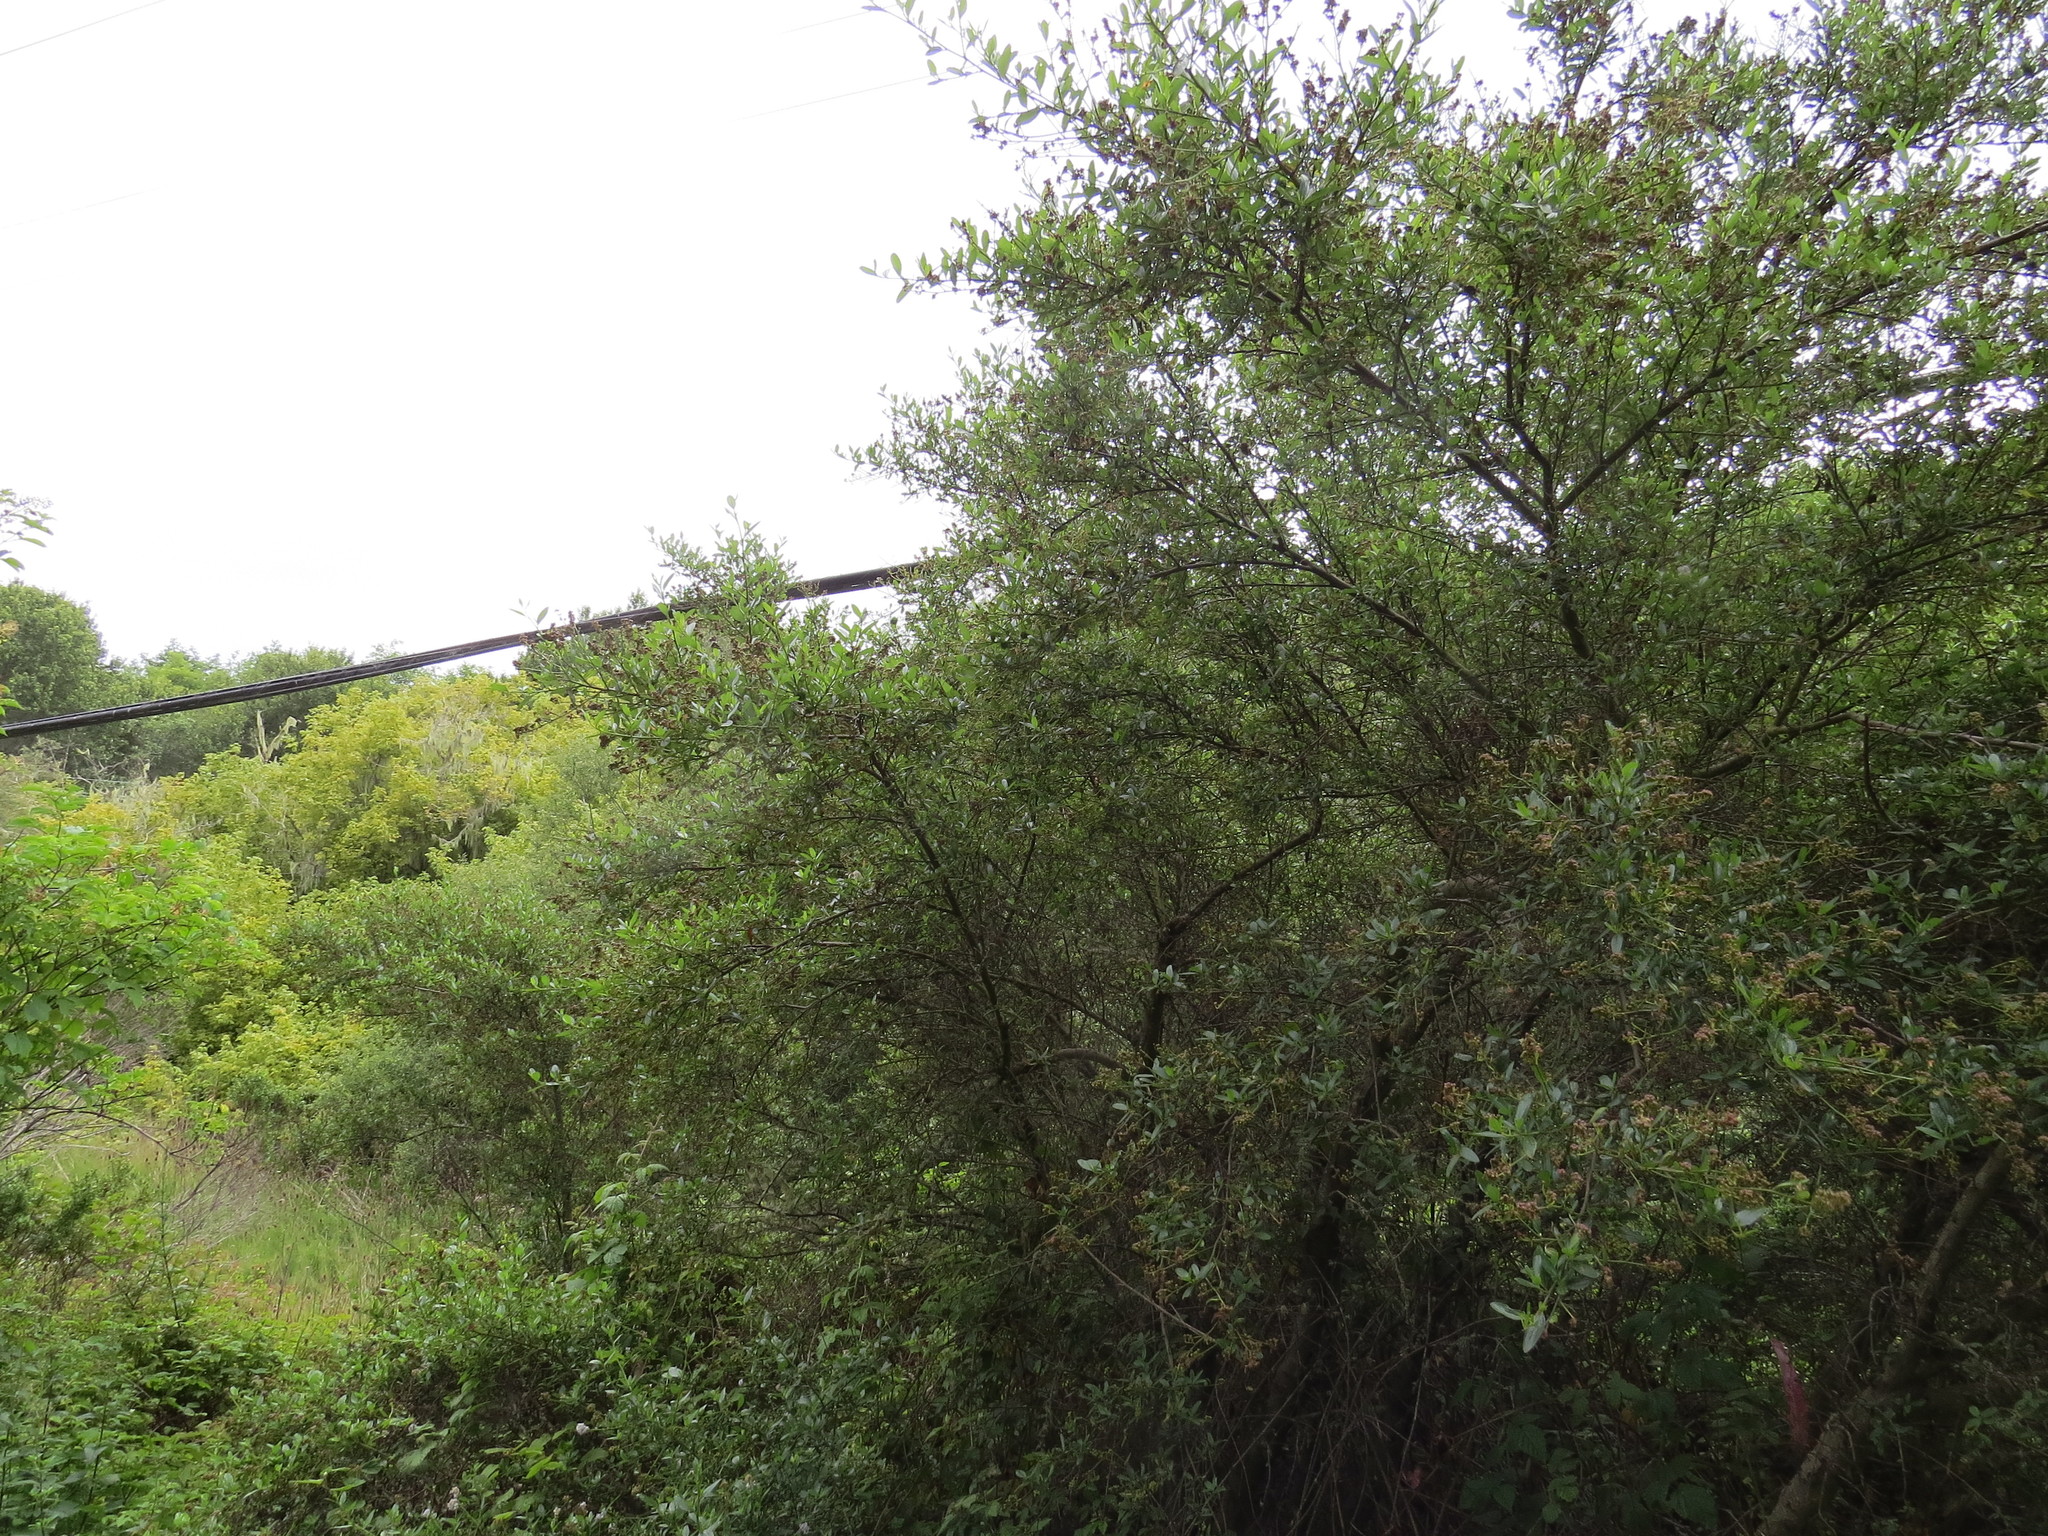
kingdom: Plantae
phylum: Tracheophyta
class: Magnoliopsida
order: Rosales
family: Rhamnaceae
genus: Ceanothus
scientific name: Ceanothus thyrsiflorus
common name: California-lilac
